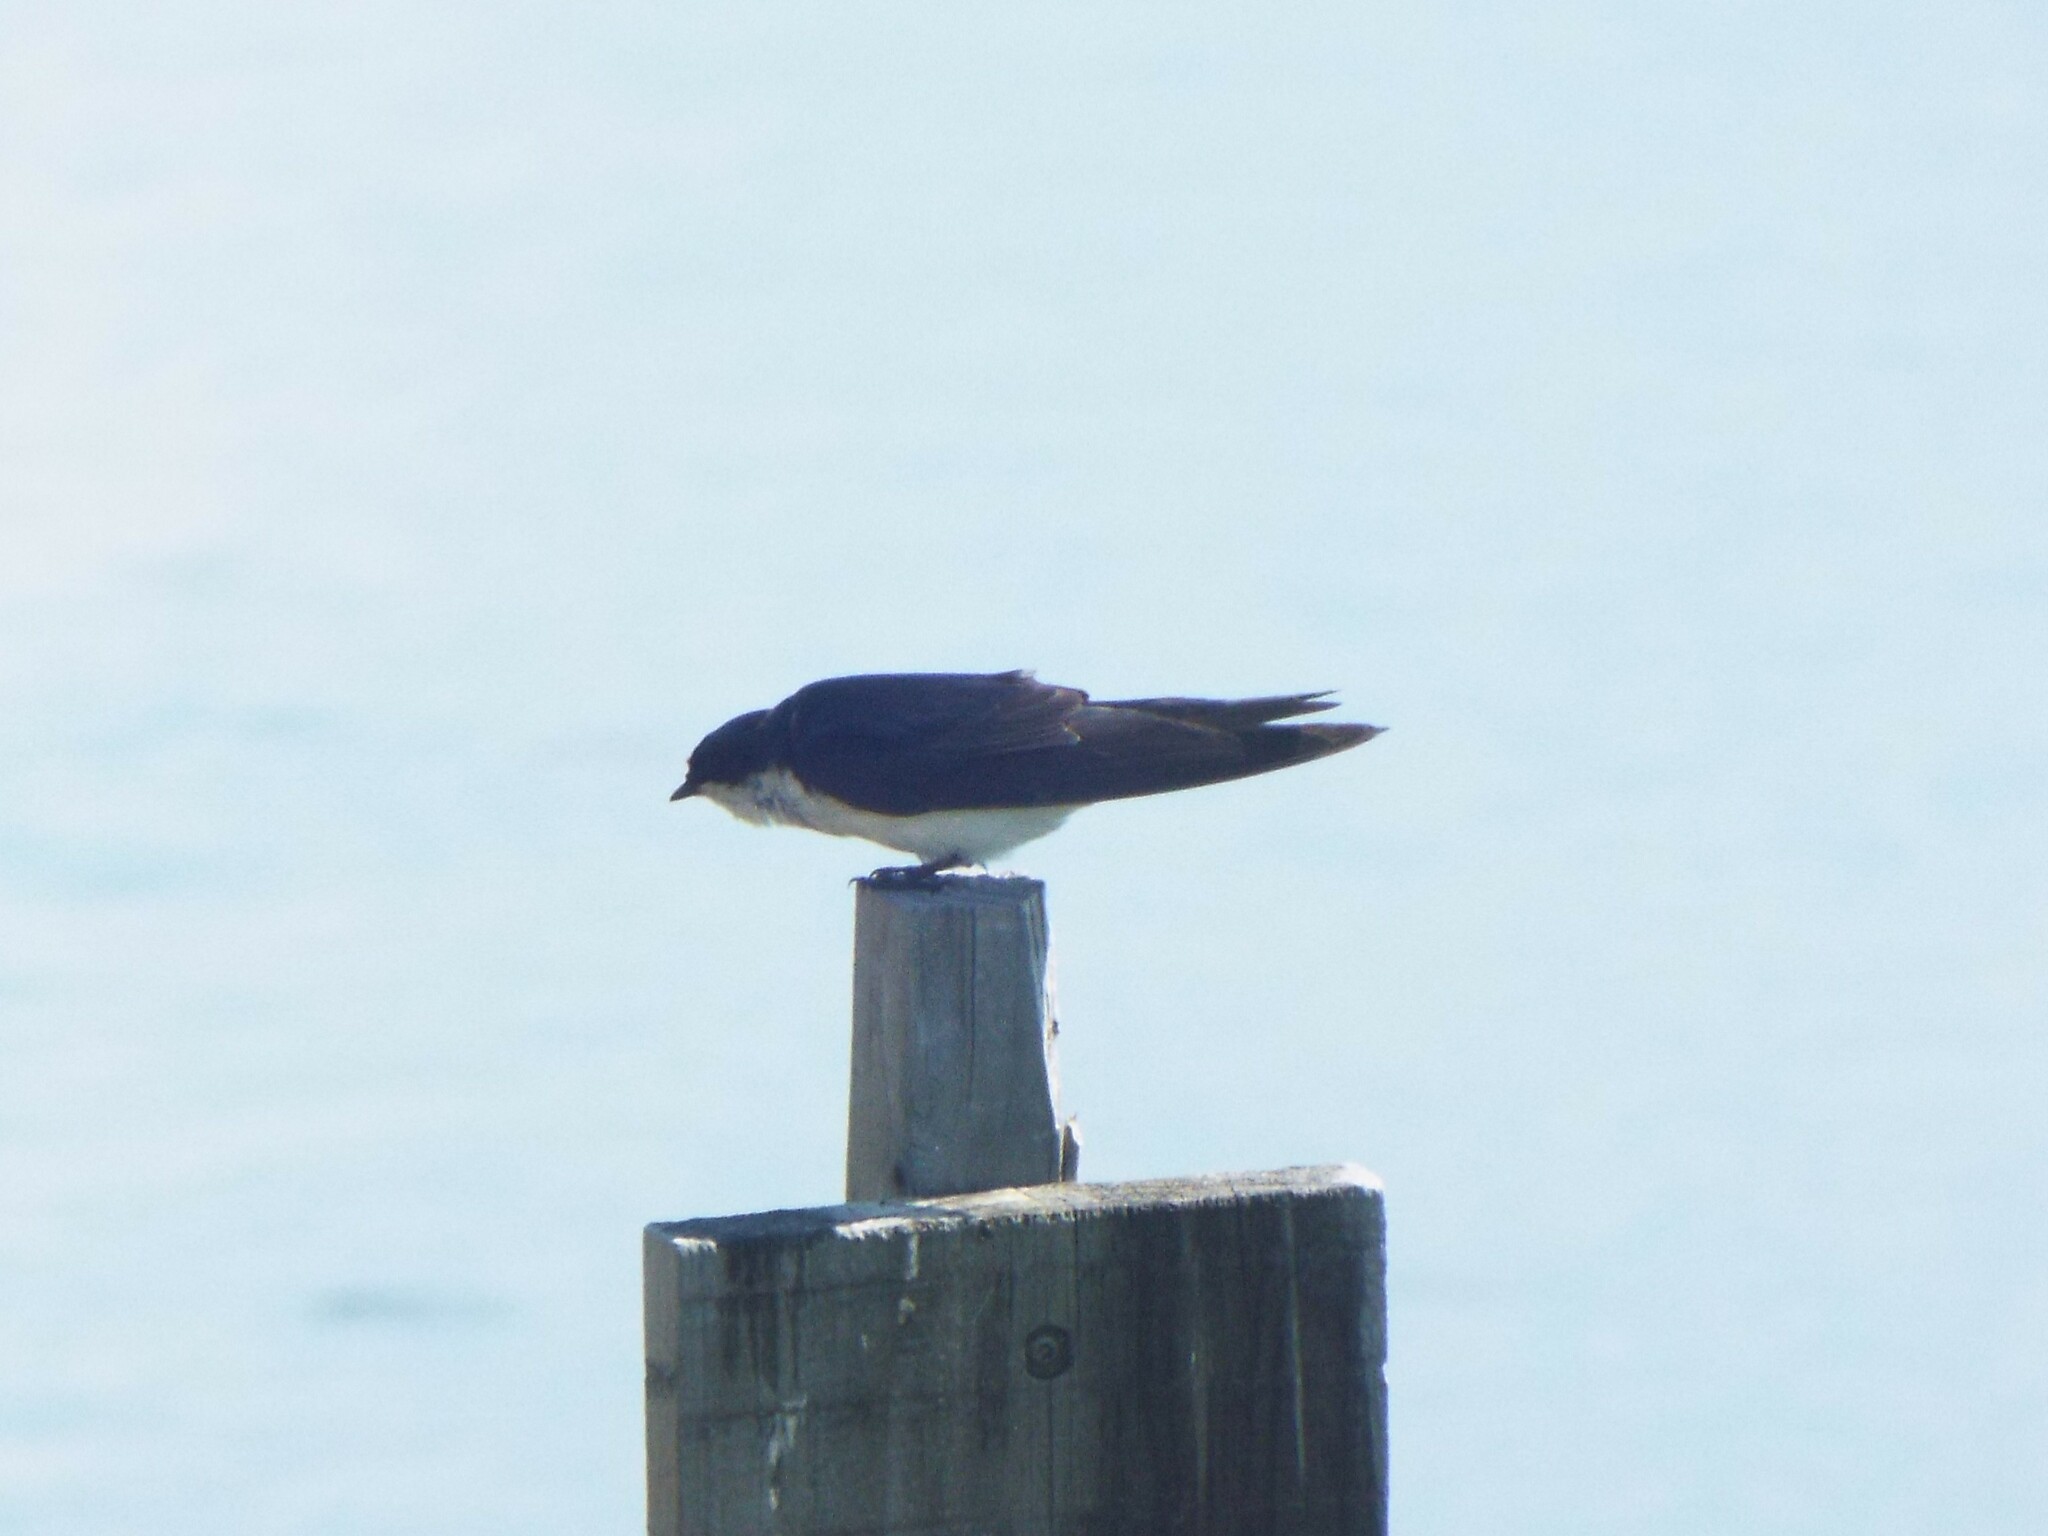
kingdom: Animalia
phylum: Chordata
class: Aves
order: Passeriformes
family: Hirundinidae
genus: Tachycineta
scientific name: Tachycineta bicolor
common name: Tree swallow
